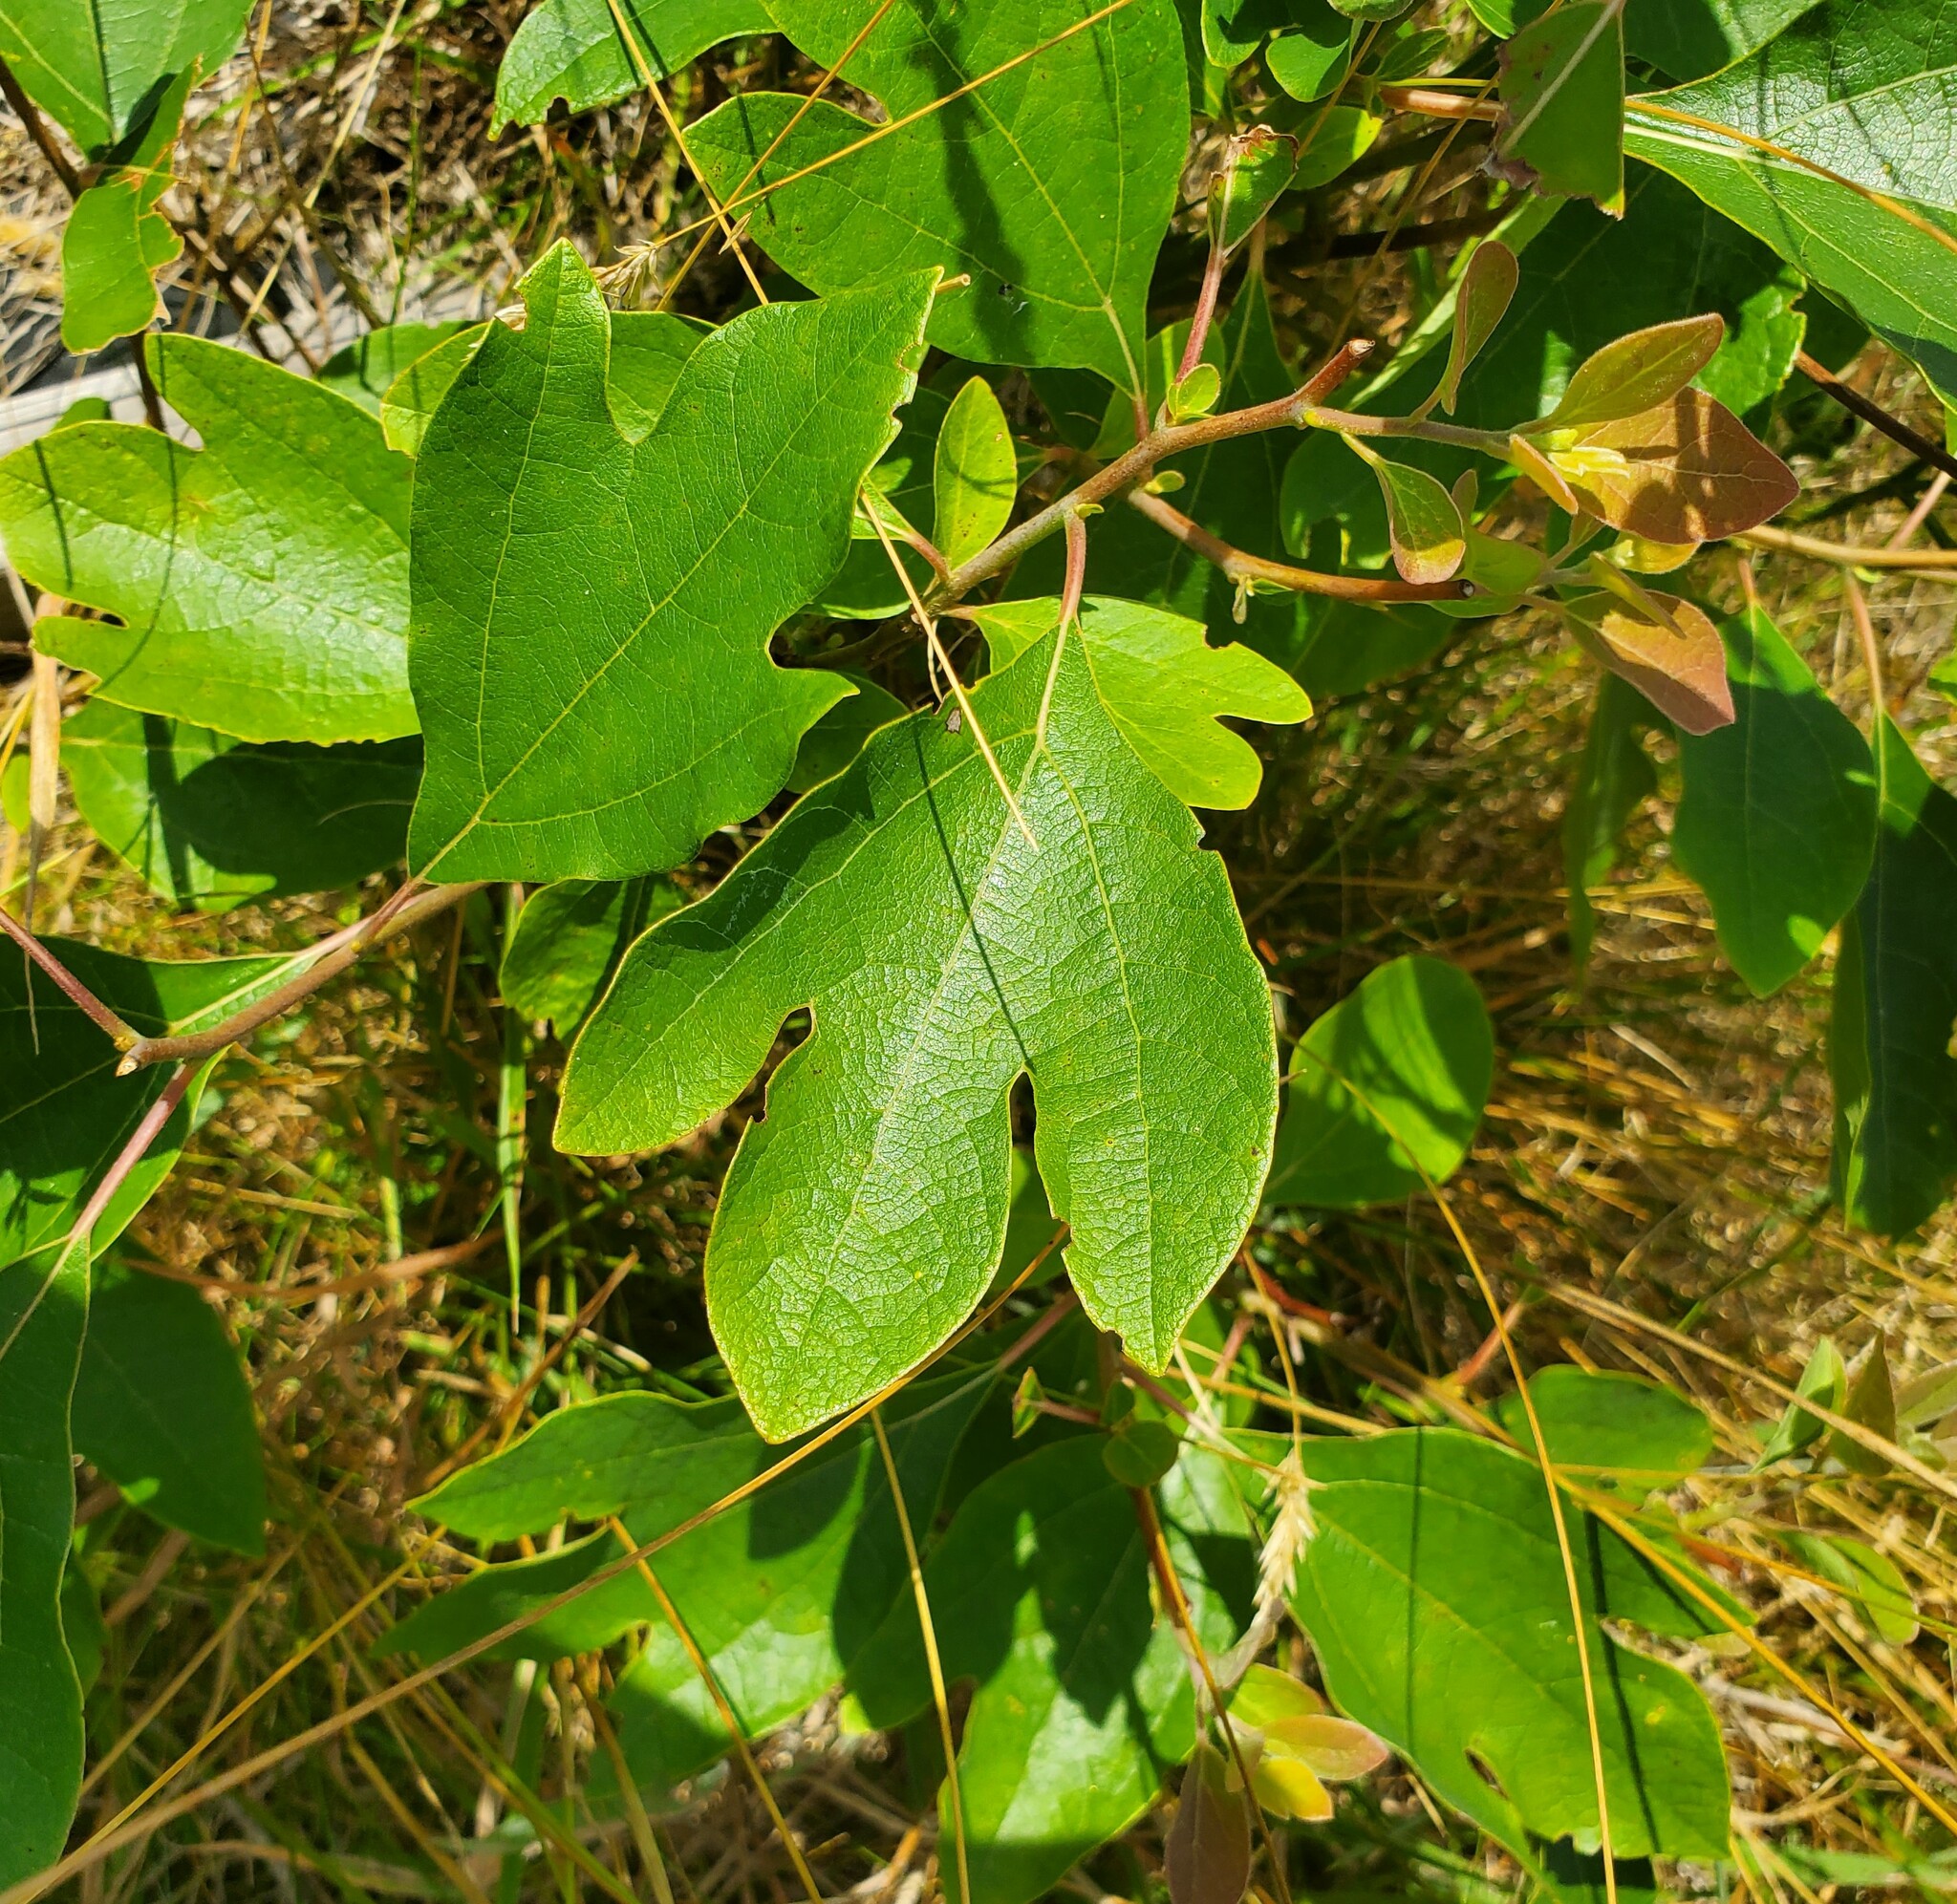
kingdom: Plantae
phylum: Tracheophyta
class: Magnoliopsida
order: Laurales
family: Lauraceae
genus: Sassafras
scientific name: Sassafras albidum
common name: Sassafras
